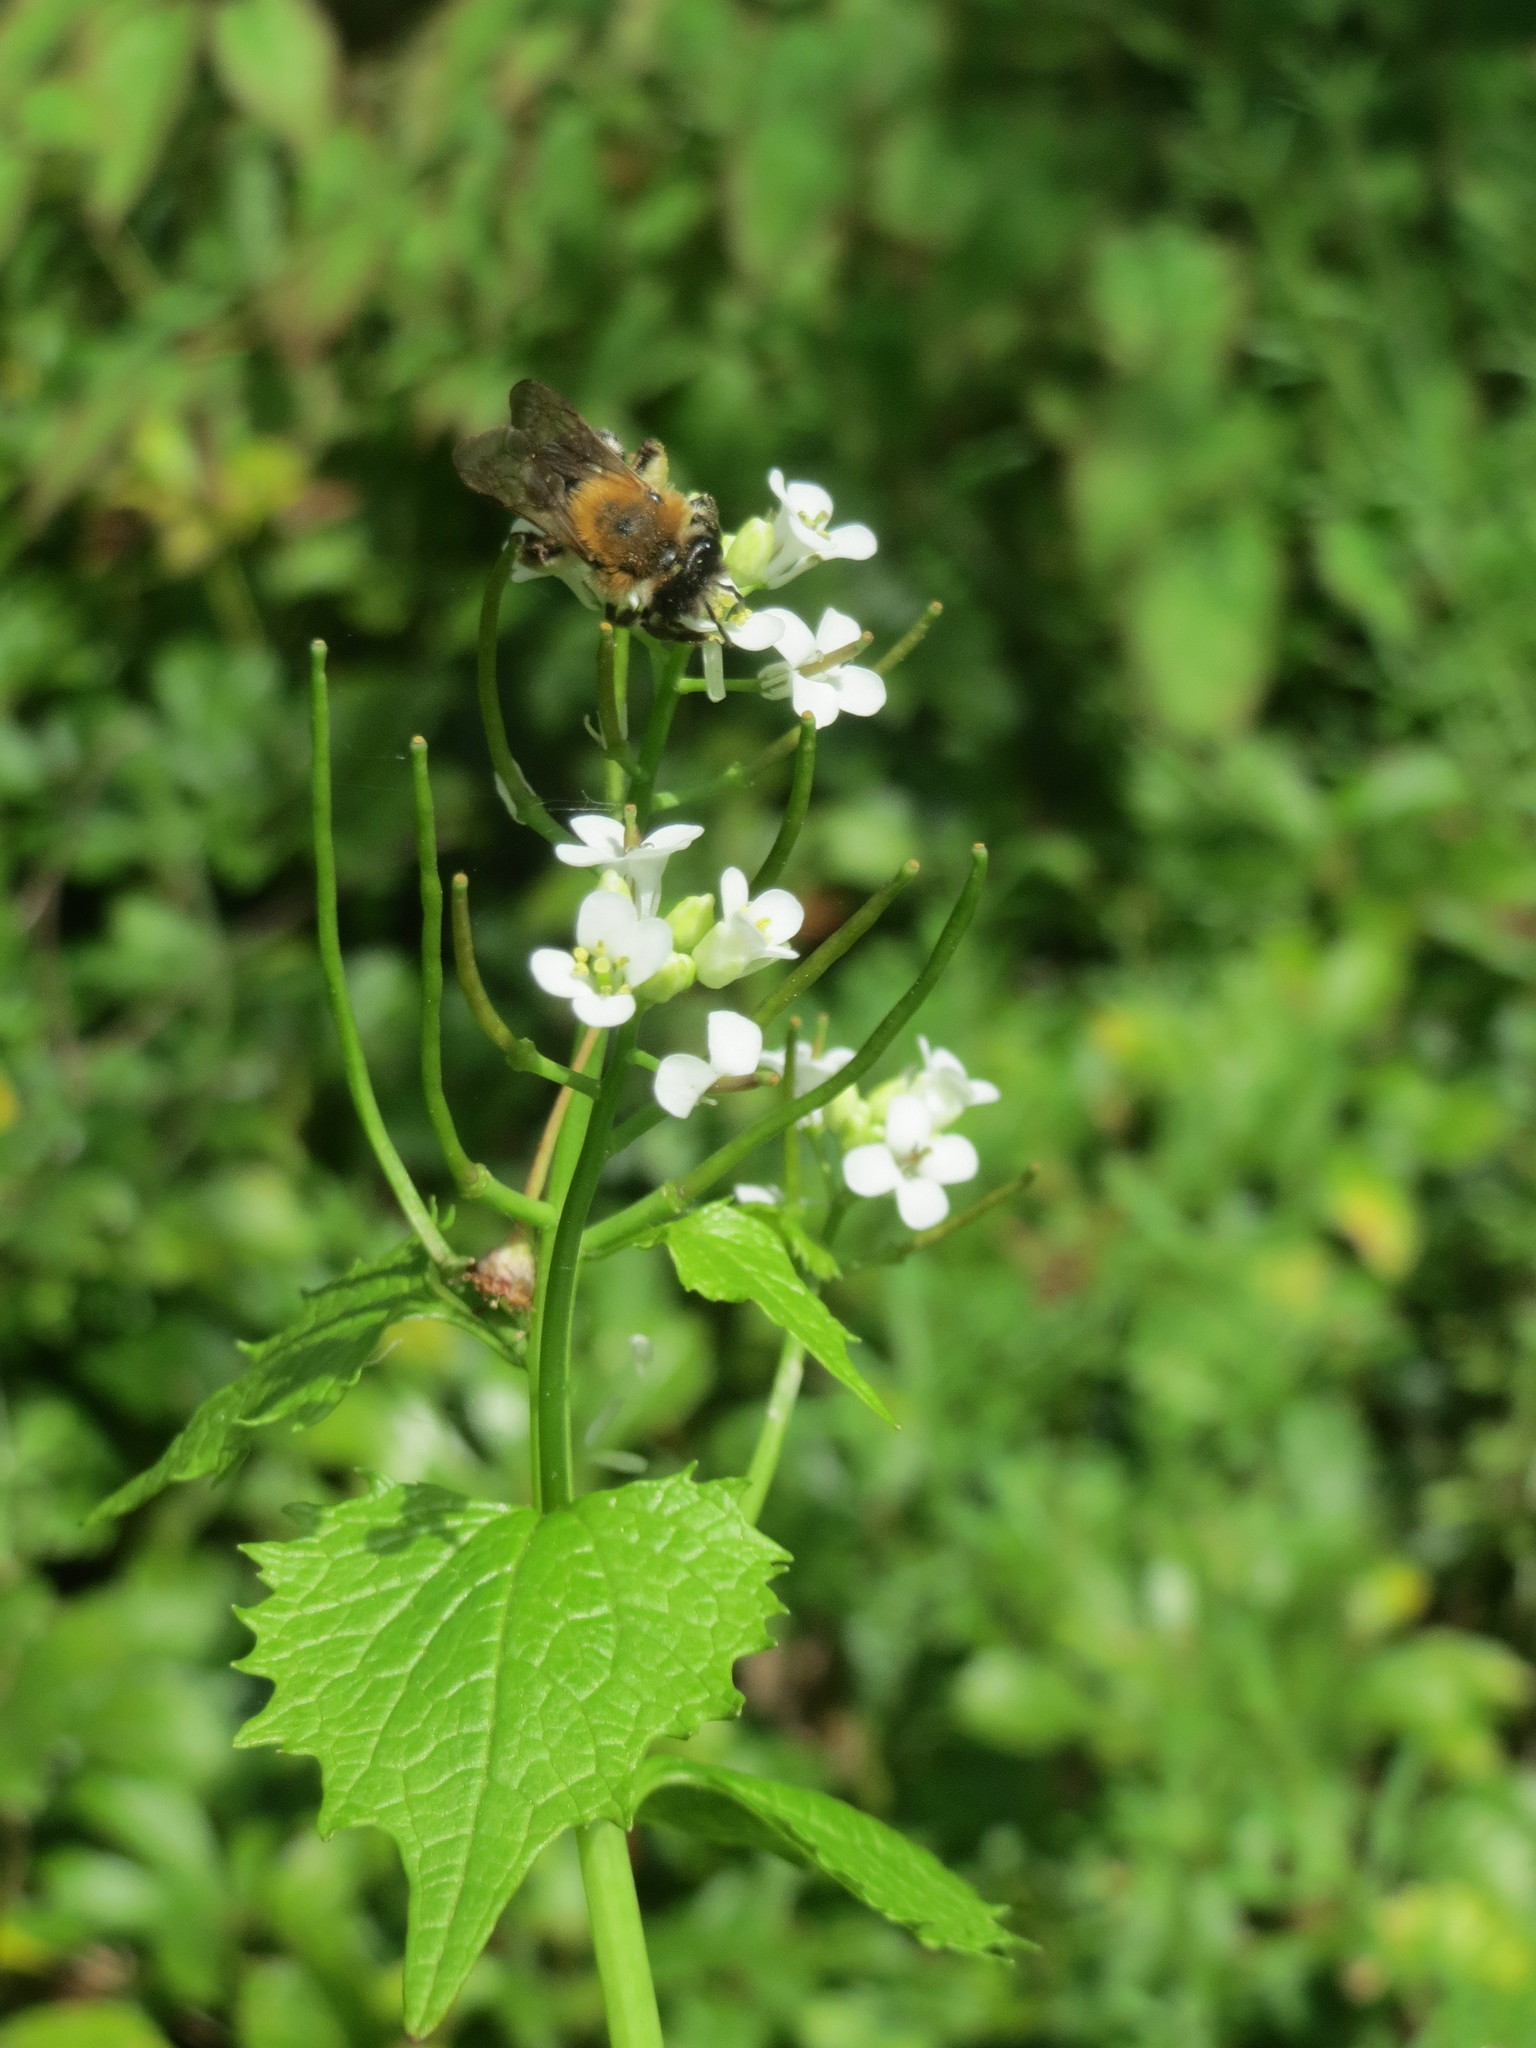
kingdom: Plantae
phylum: Tracheophyta
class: Magnoliopsida
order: Brassicales
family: Brassicaceae
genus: Alliaria
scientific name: Alliaria petiolata
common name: Garlic mustard
